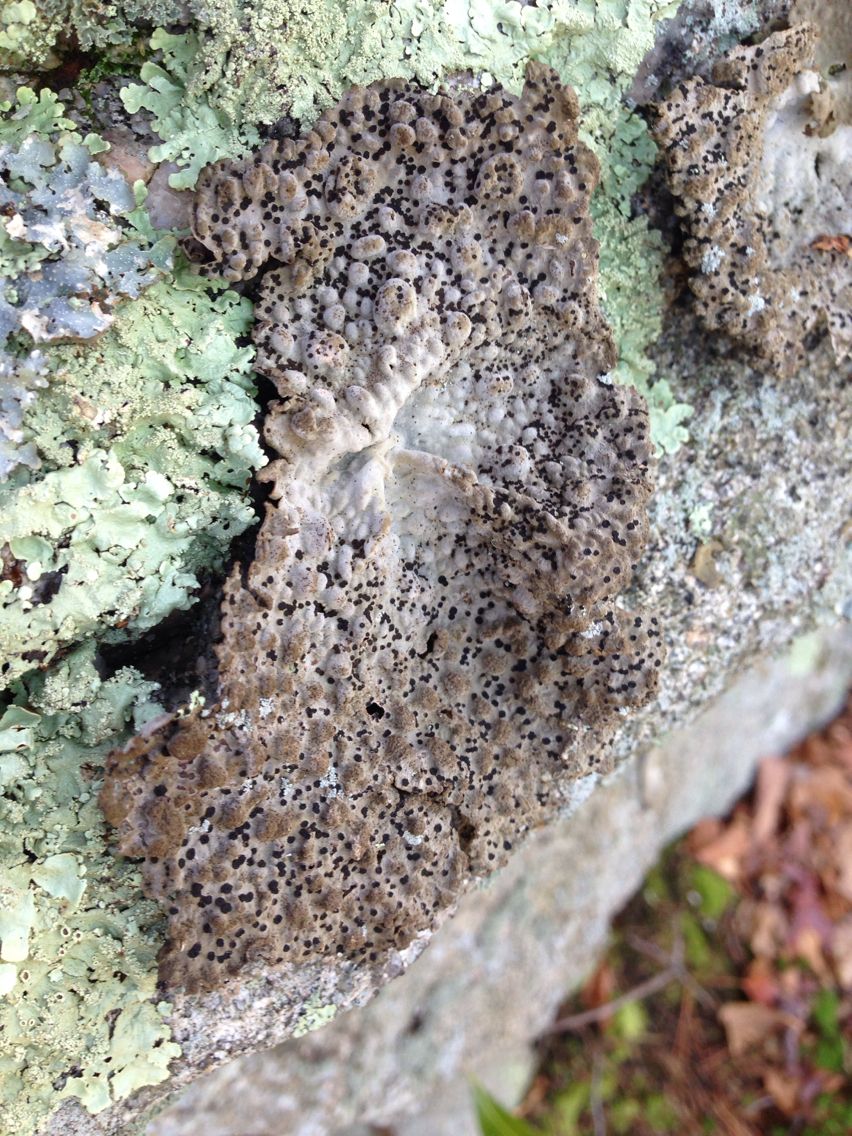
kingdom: Fungi
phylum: Ascomycota
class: Lecanoromycetes
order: Umbilicariales
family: Umbilicariaceae
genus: Lasallia
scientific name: Lasallia papulosa
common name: Common toadskin lichen
